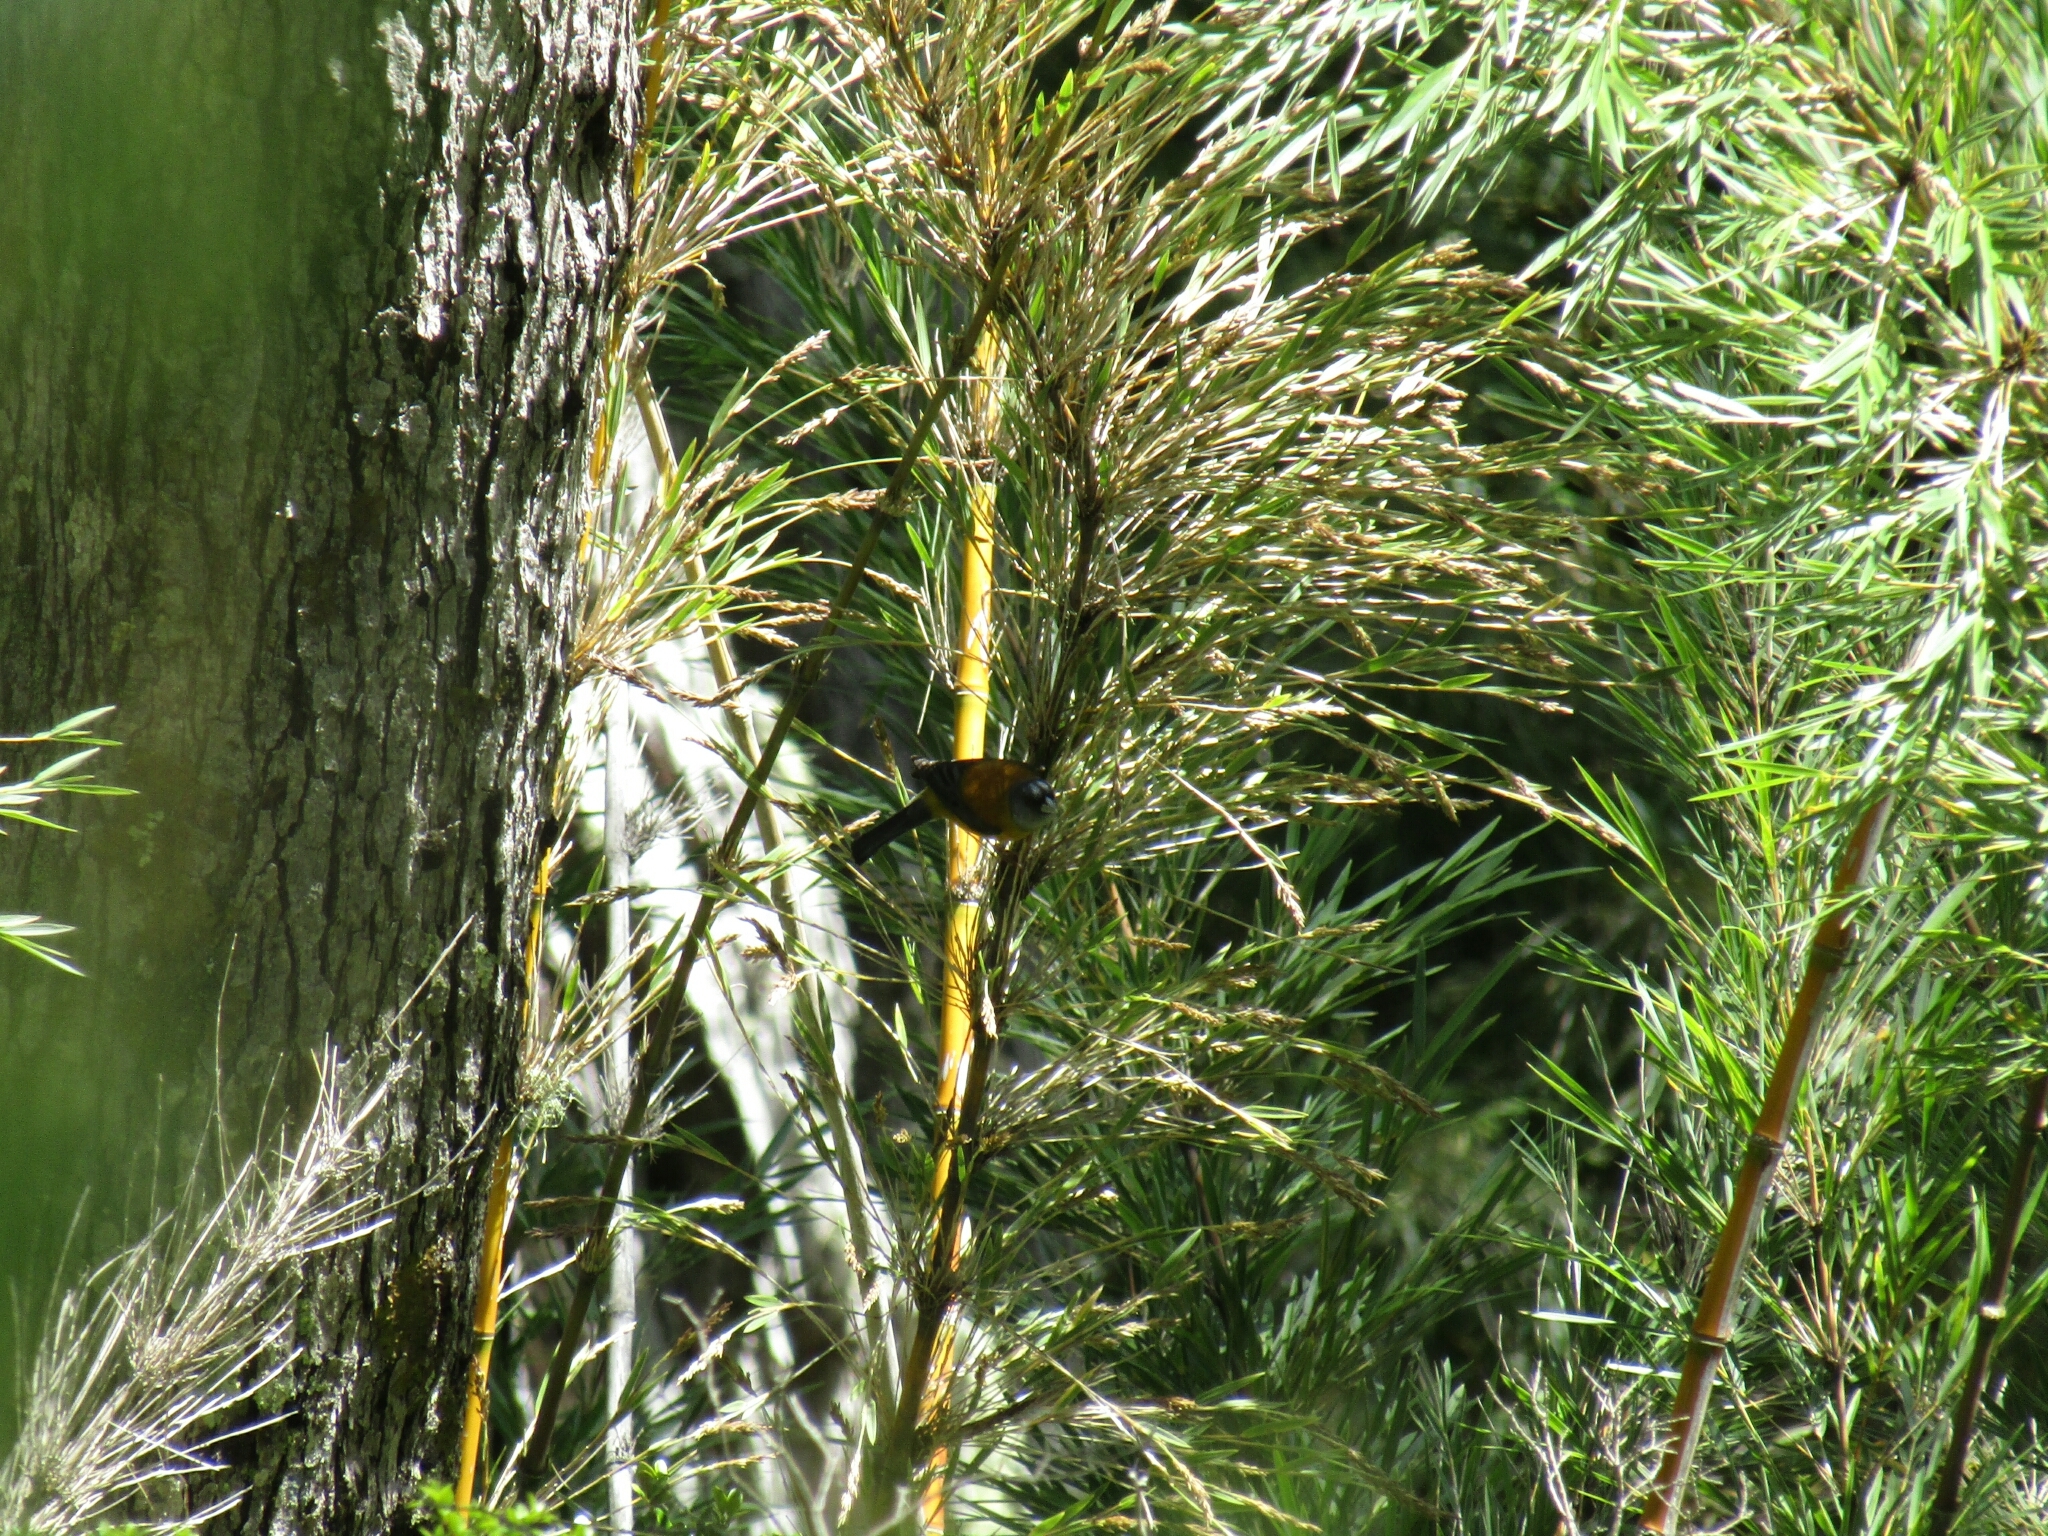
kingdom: Animalia
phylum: Chordata
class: Aves
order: Passeriformes
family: Thraupidae
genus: Phrygilus
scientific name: Phrygilus patagonicus
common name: Patagonian sierra finch
